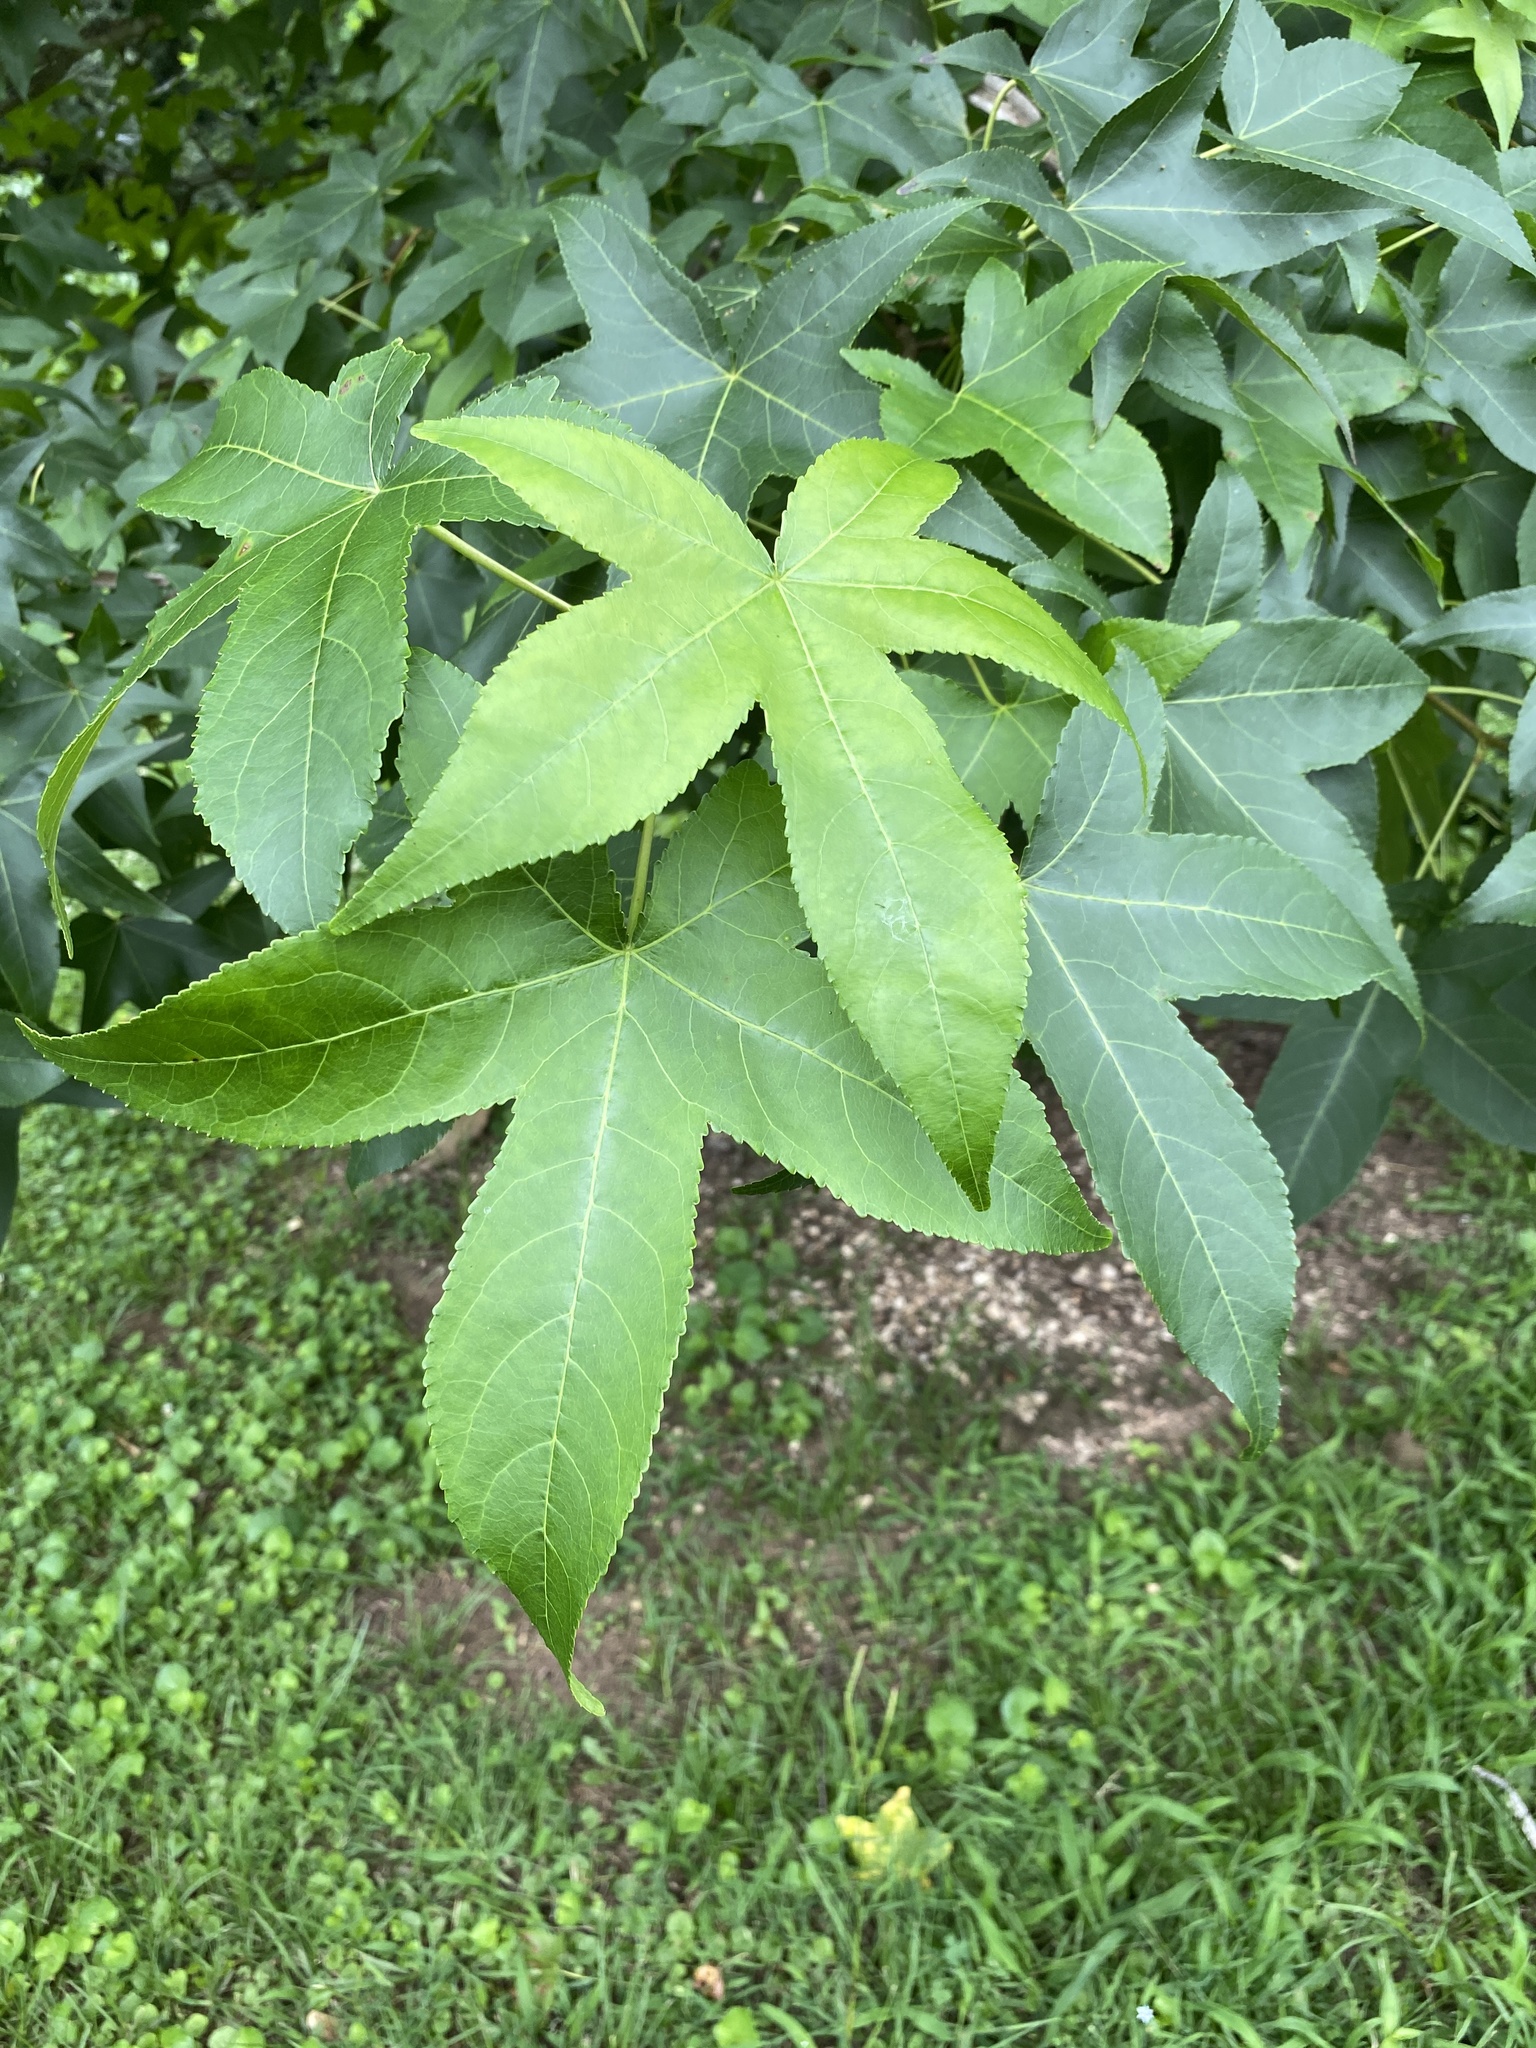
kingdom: Plantae
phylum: Tracheophyta
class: Magnoliopsida
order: Saxifragales
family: Altingiaceae
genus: Liquidambar
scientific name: Liquidambar styraciflua
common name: Sweet gum
